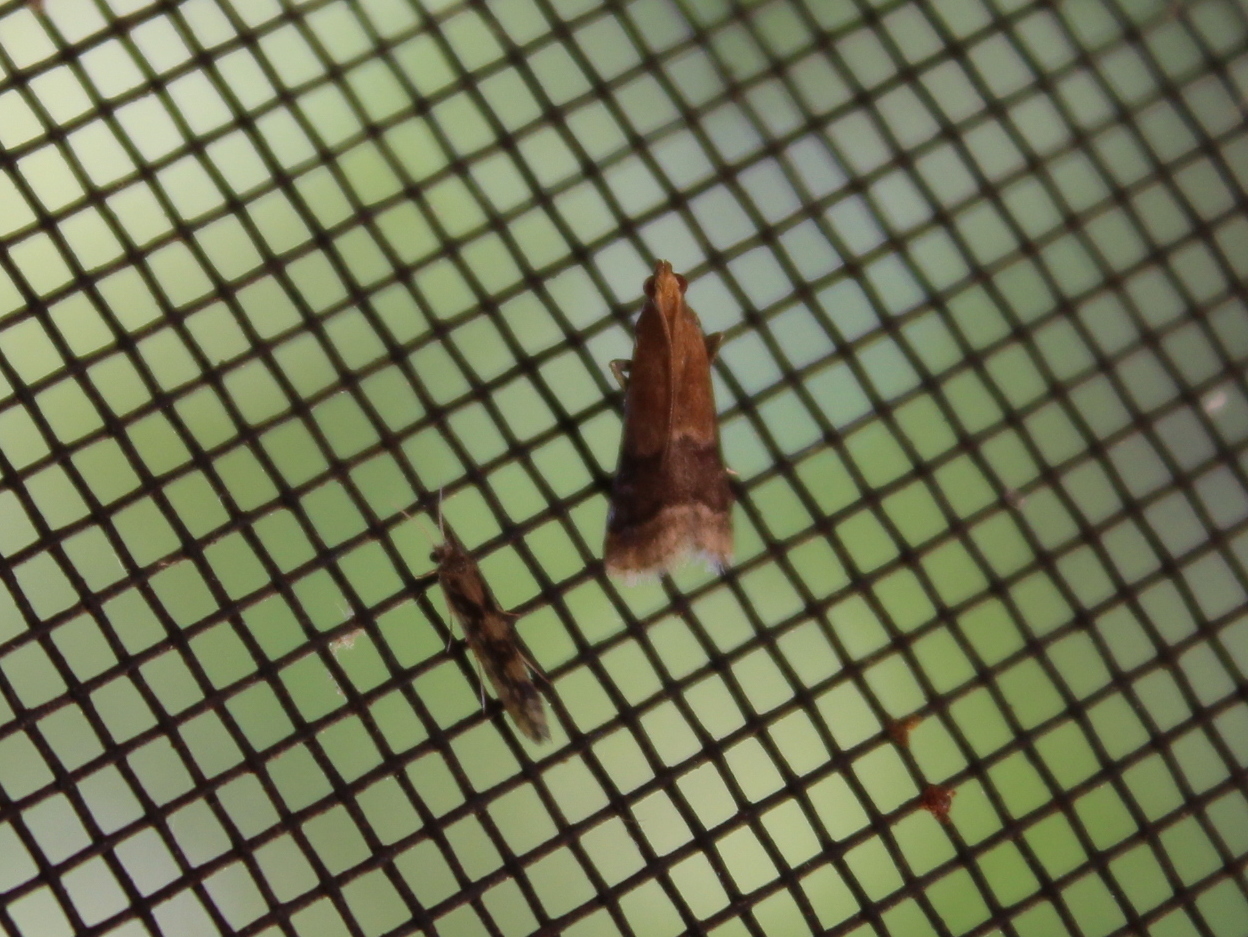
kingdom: Animalia
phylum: Arthropoda
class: Insecta
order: Lepidoptera
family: Pyralidae
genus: Eulogia
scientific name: Eulogia ochrifrontella
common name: Broad-banded eulogia moth
